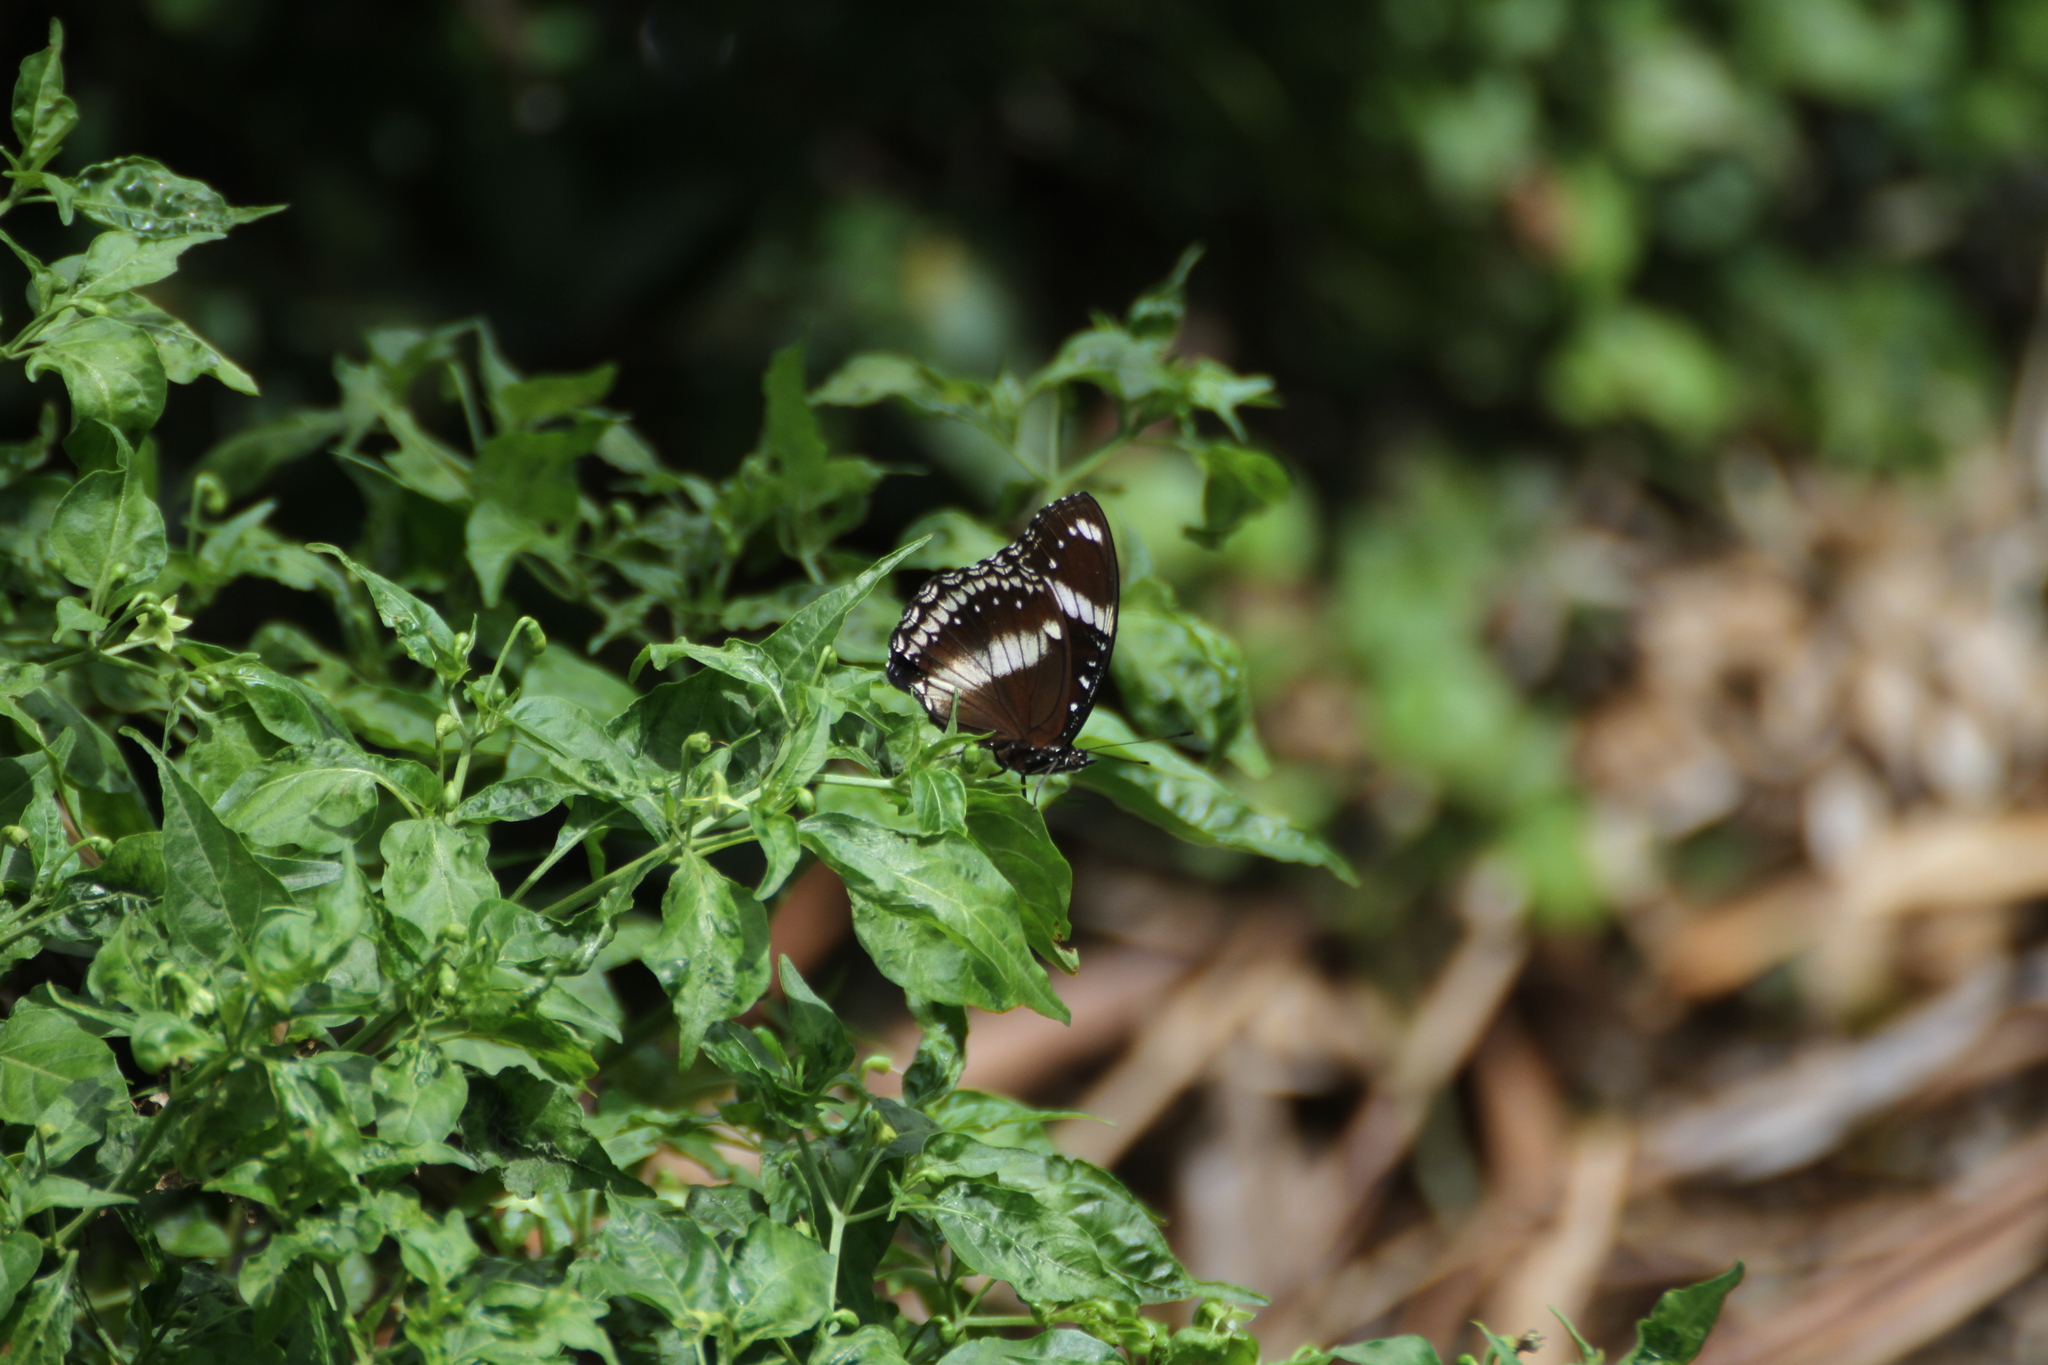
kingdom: Animalia
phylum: Arthropoda
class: Insecta
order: Lepidoptera
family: Nymphalidae
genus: Hypolimnas
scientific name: Hypolimnas bolina
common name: Great eggfly
